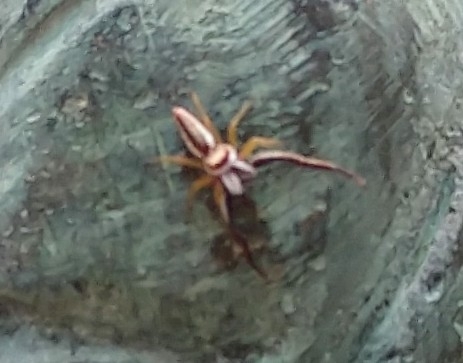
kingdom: Animalia
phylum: Arthropoda
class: Arachnida
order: Araneae
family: Salticidae
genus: Hentzia
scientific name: Hentzia palmarum
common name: Common hentz jumping spider
